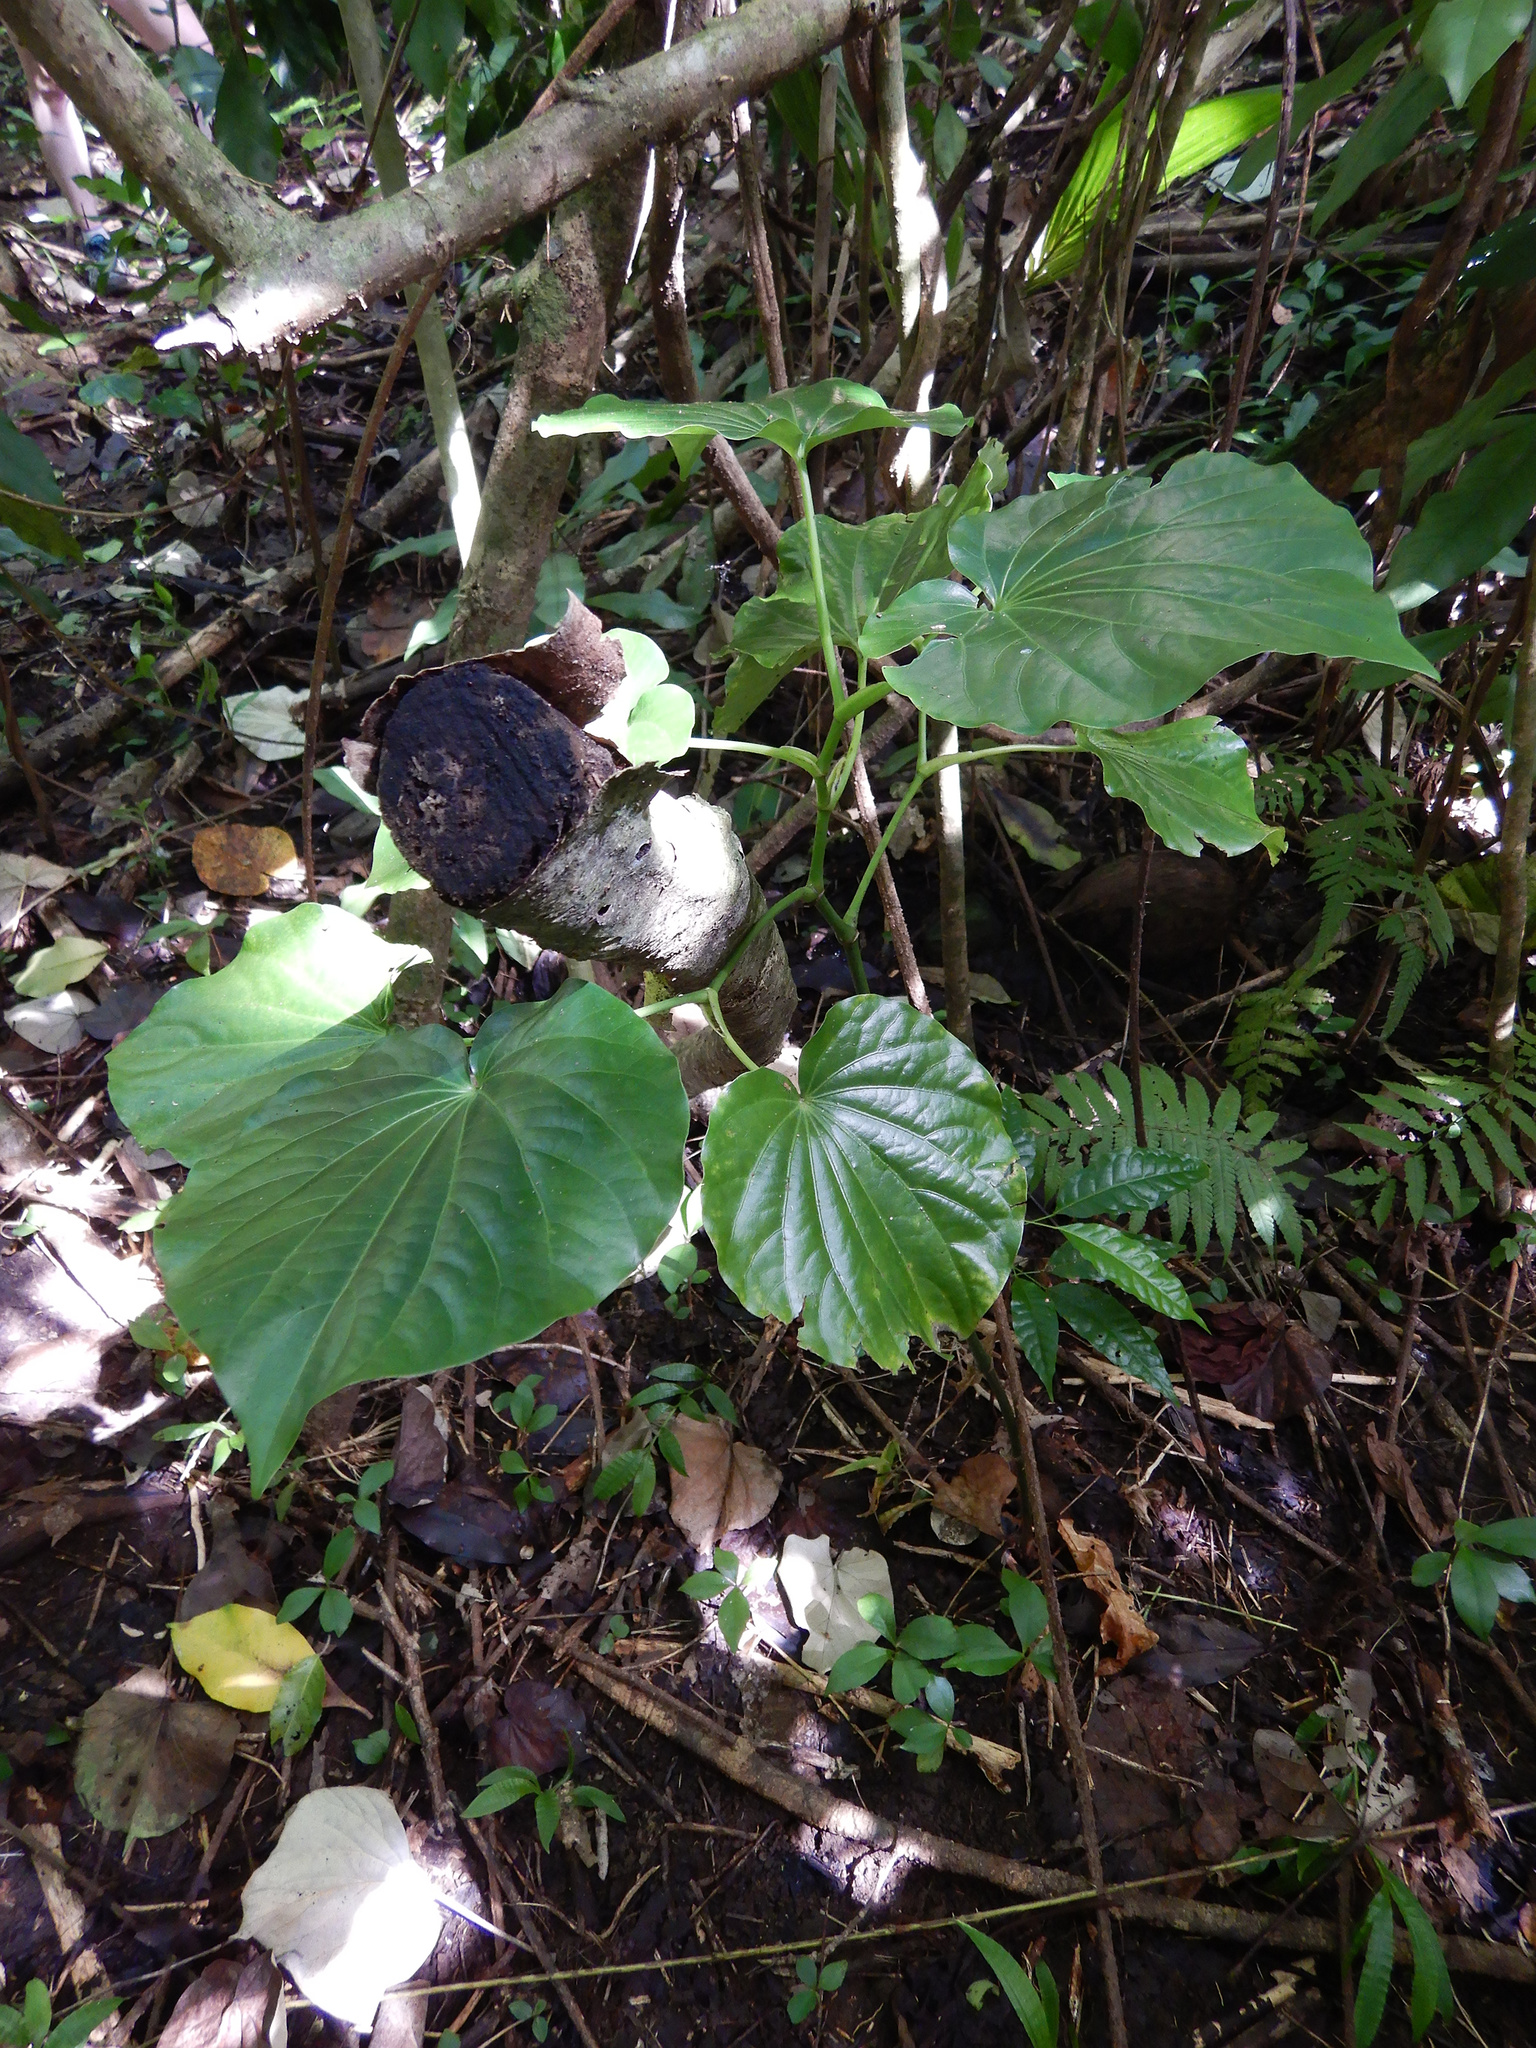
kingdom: Plantae
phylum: Tracheophyta
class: Magnoliopsida
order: Piperales
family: Piperaceae
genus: Piper
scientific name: Piper latifolium
